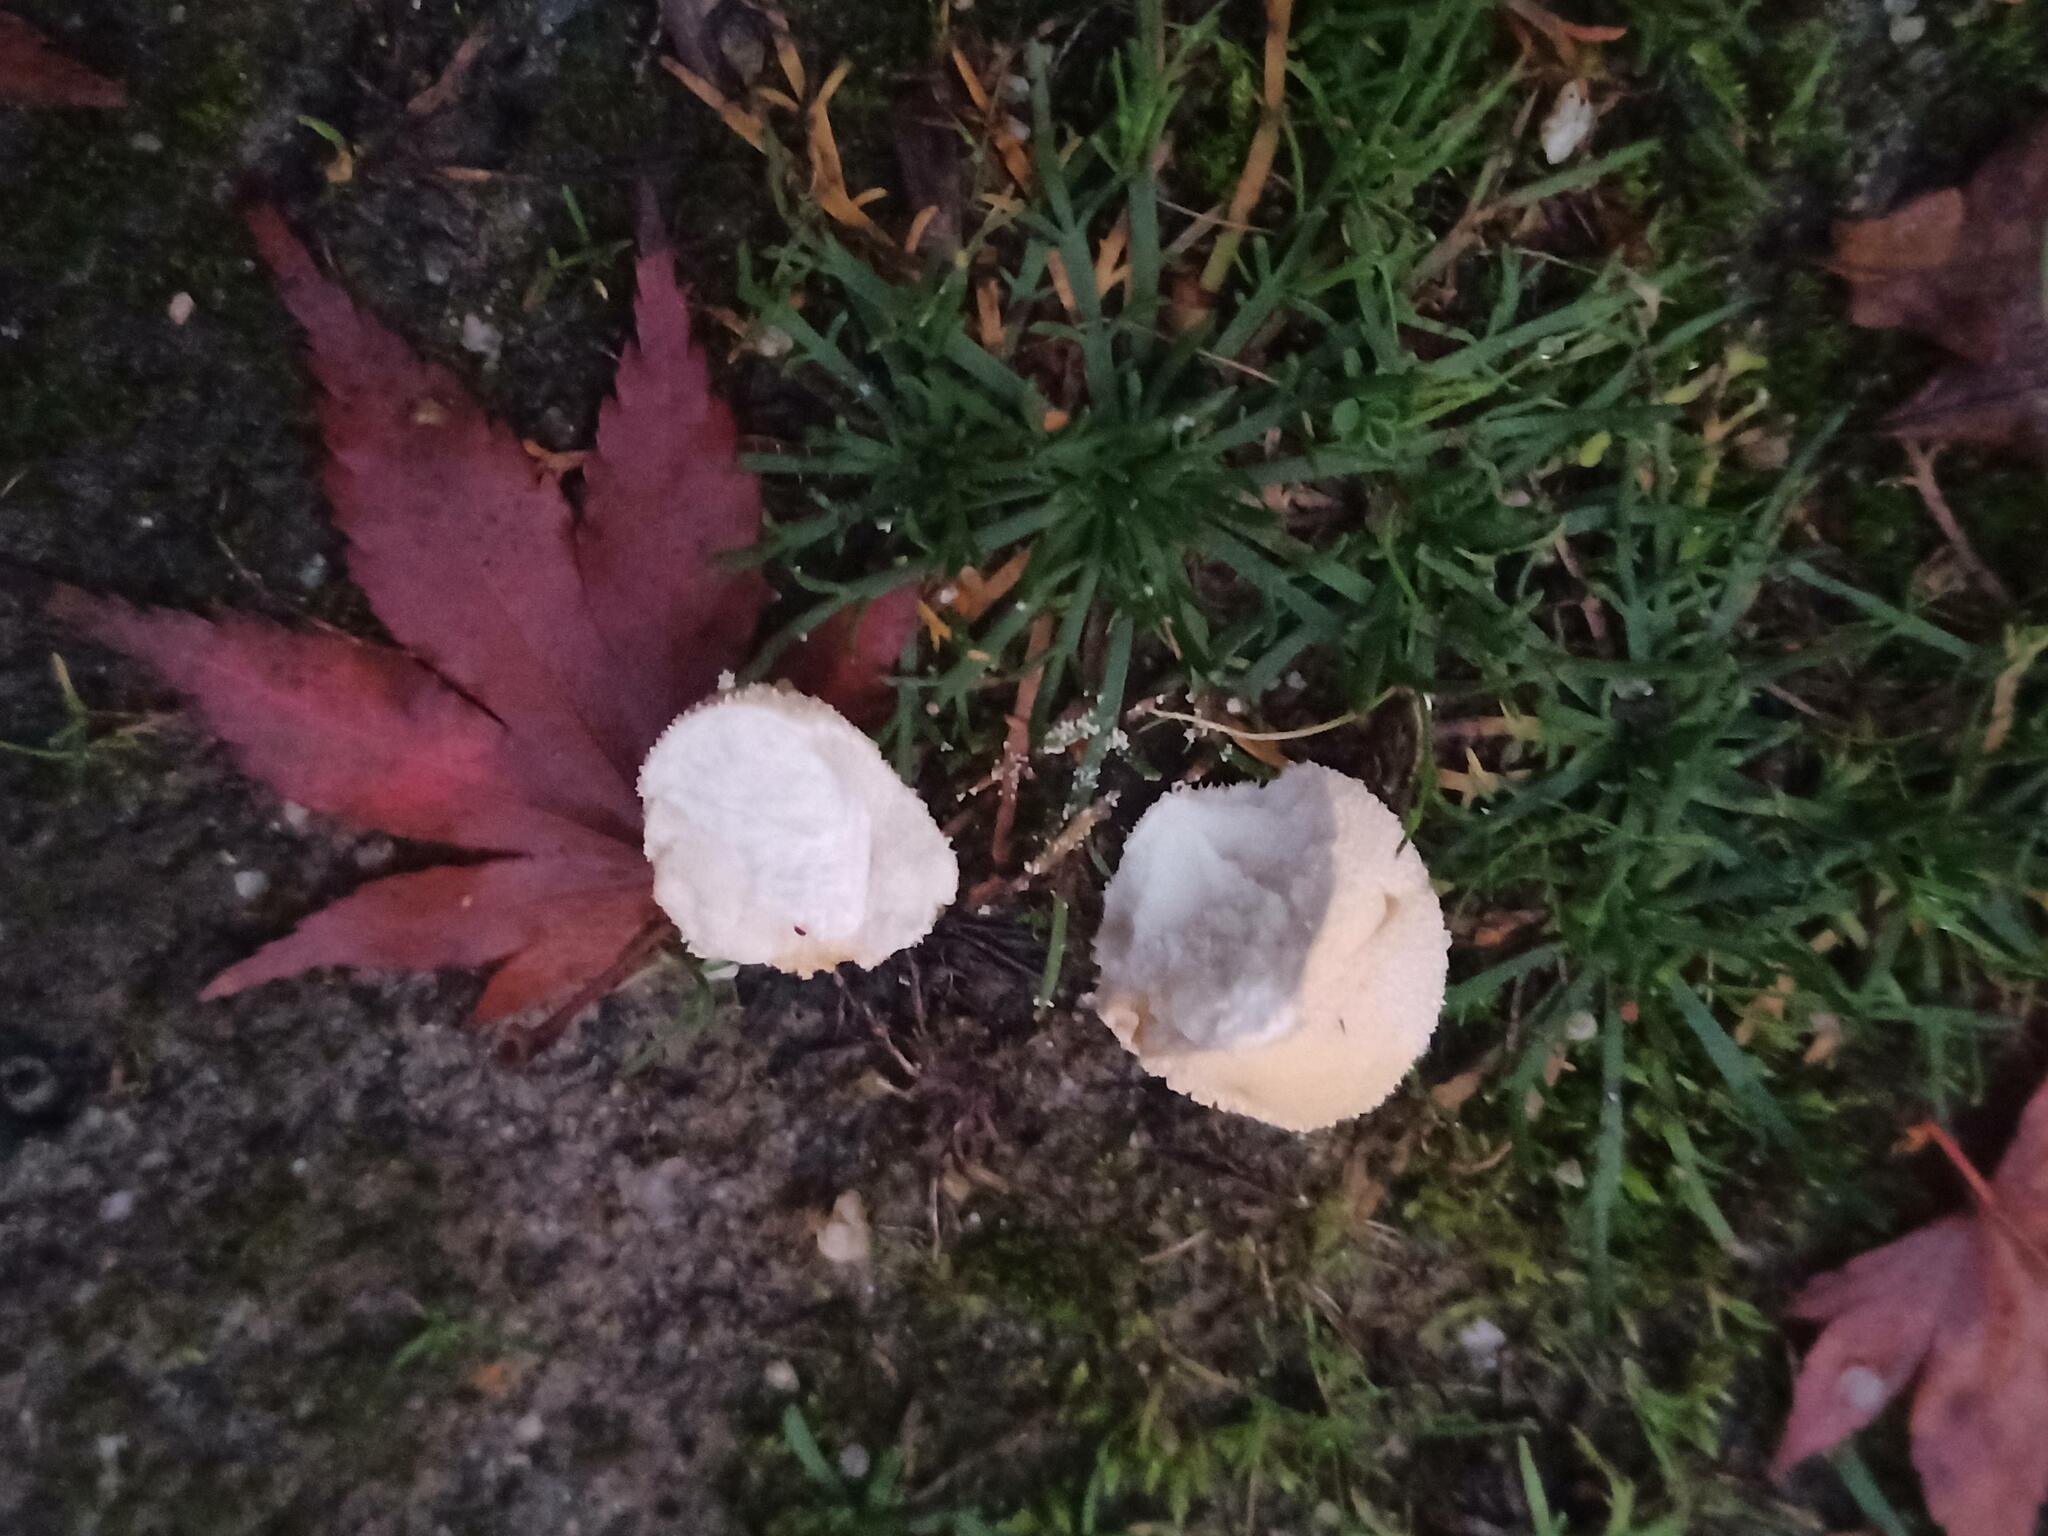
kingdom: Fungi
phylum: Basidiomycota
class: Agaricomycetes
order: Agaricales
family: Lycoperdaceae
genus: Lycoperdon
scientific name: Lycoperdon perlatum
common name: Common puffball
